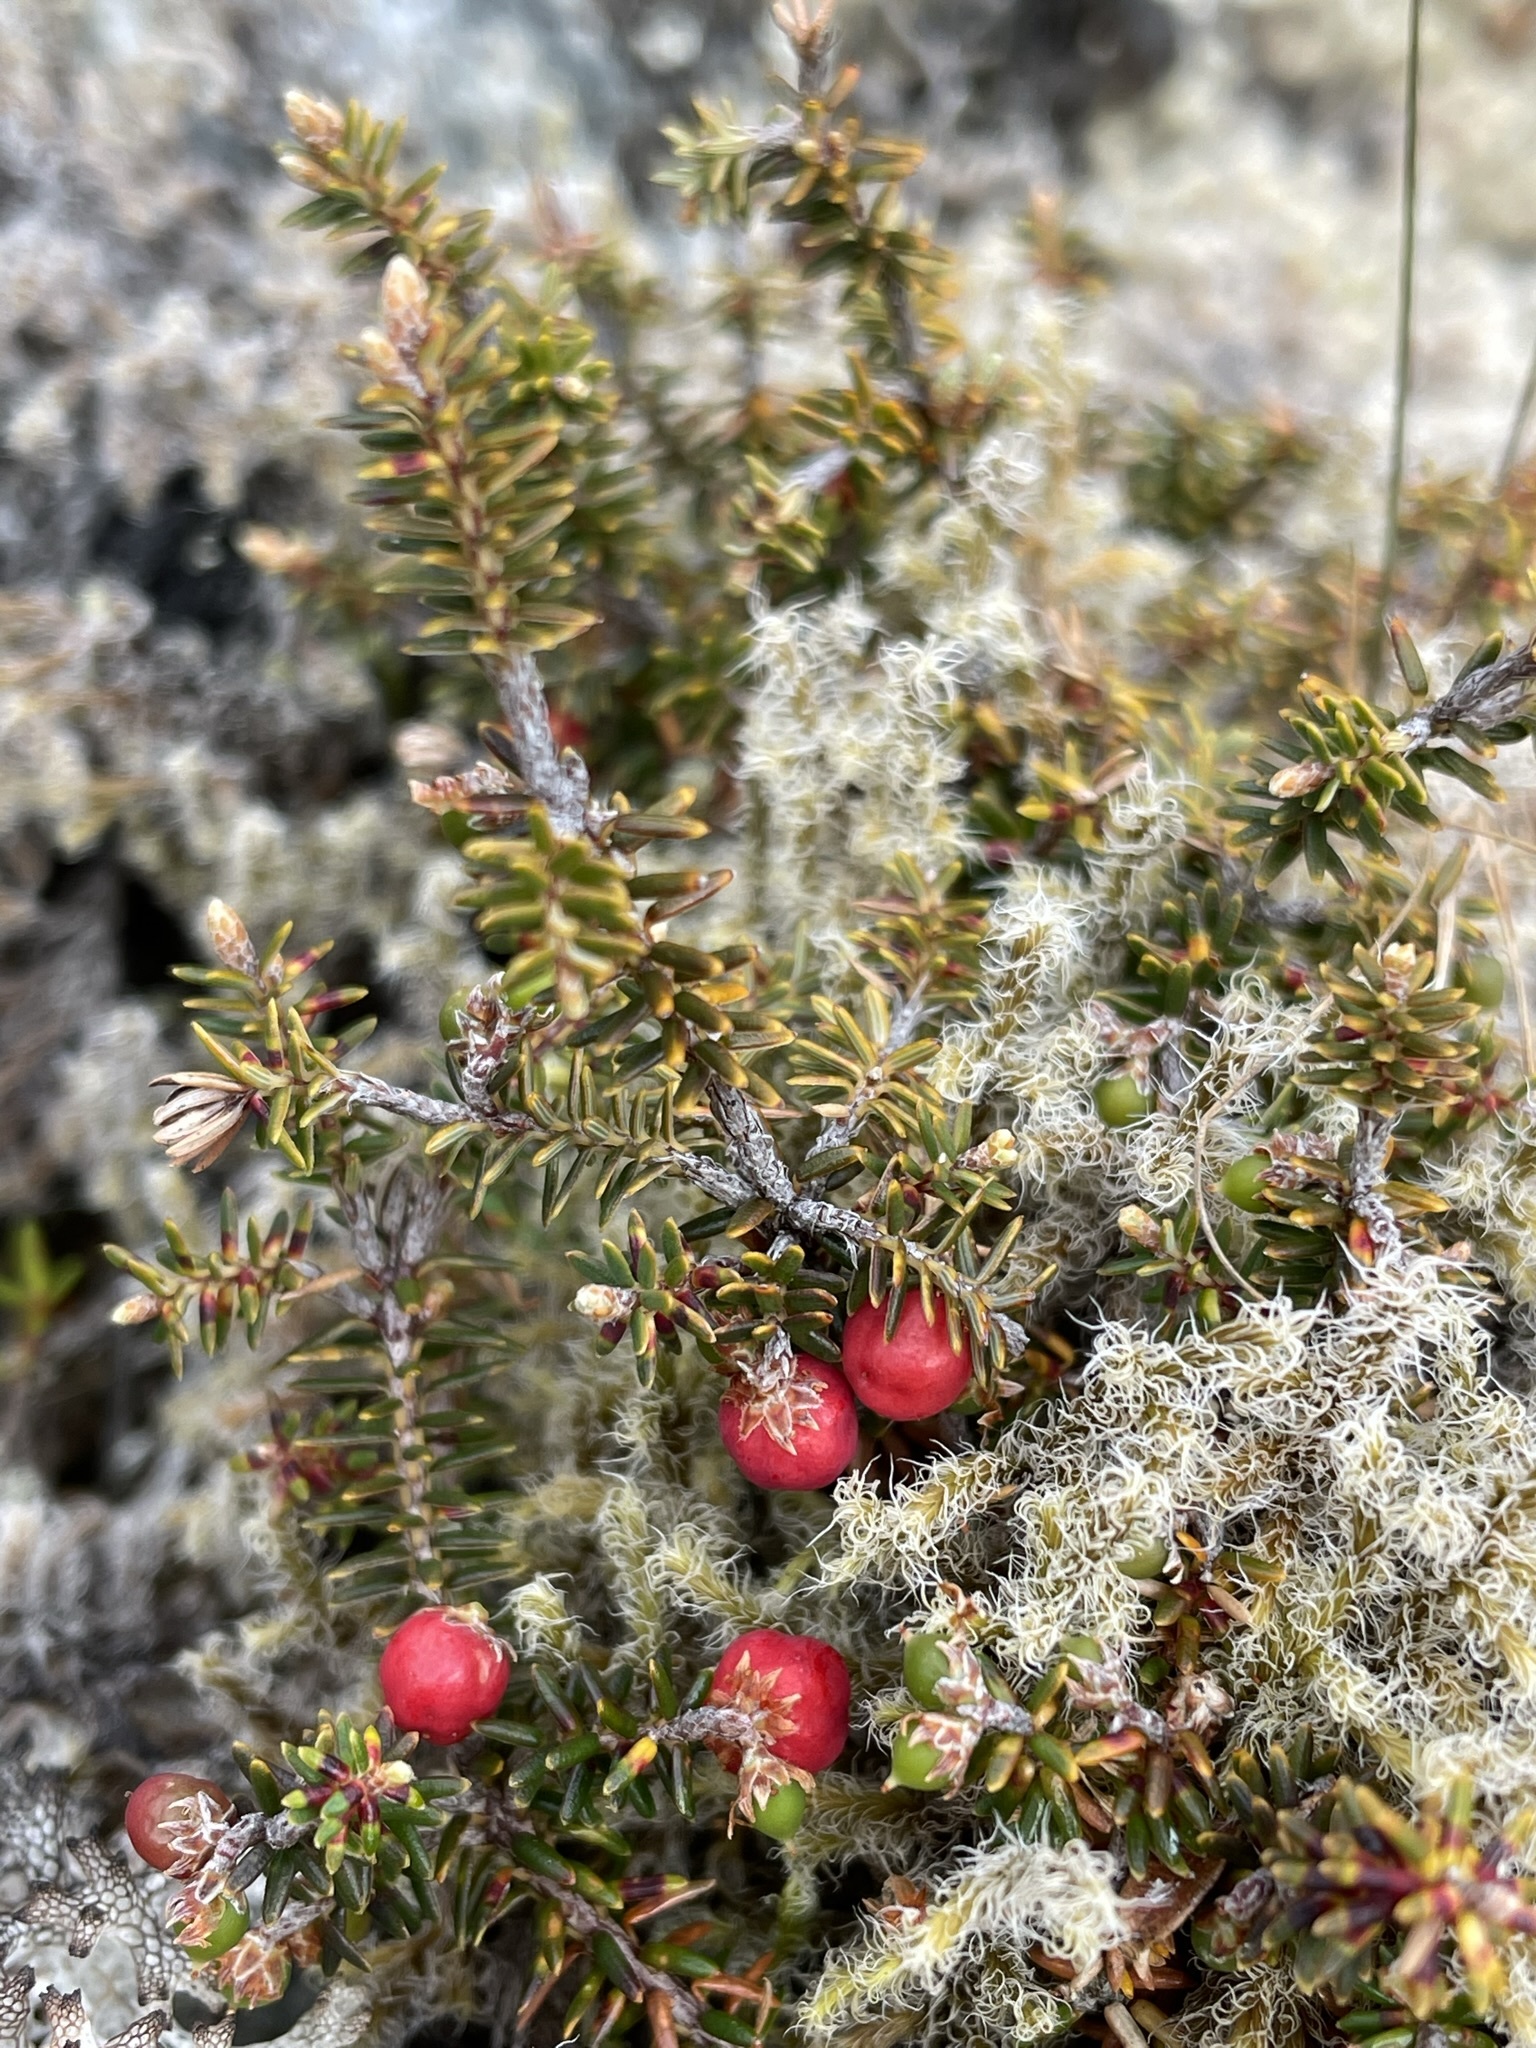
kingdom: Plantae
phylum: Tracheophyta
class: Magnoliopsida
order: Ericales
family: Ericaceae
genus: Androstoma
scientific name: Androstoma empetrifolia
